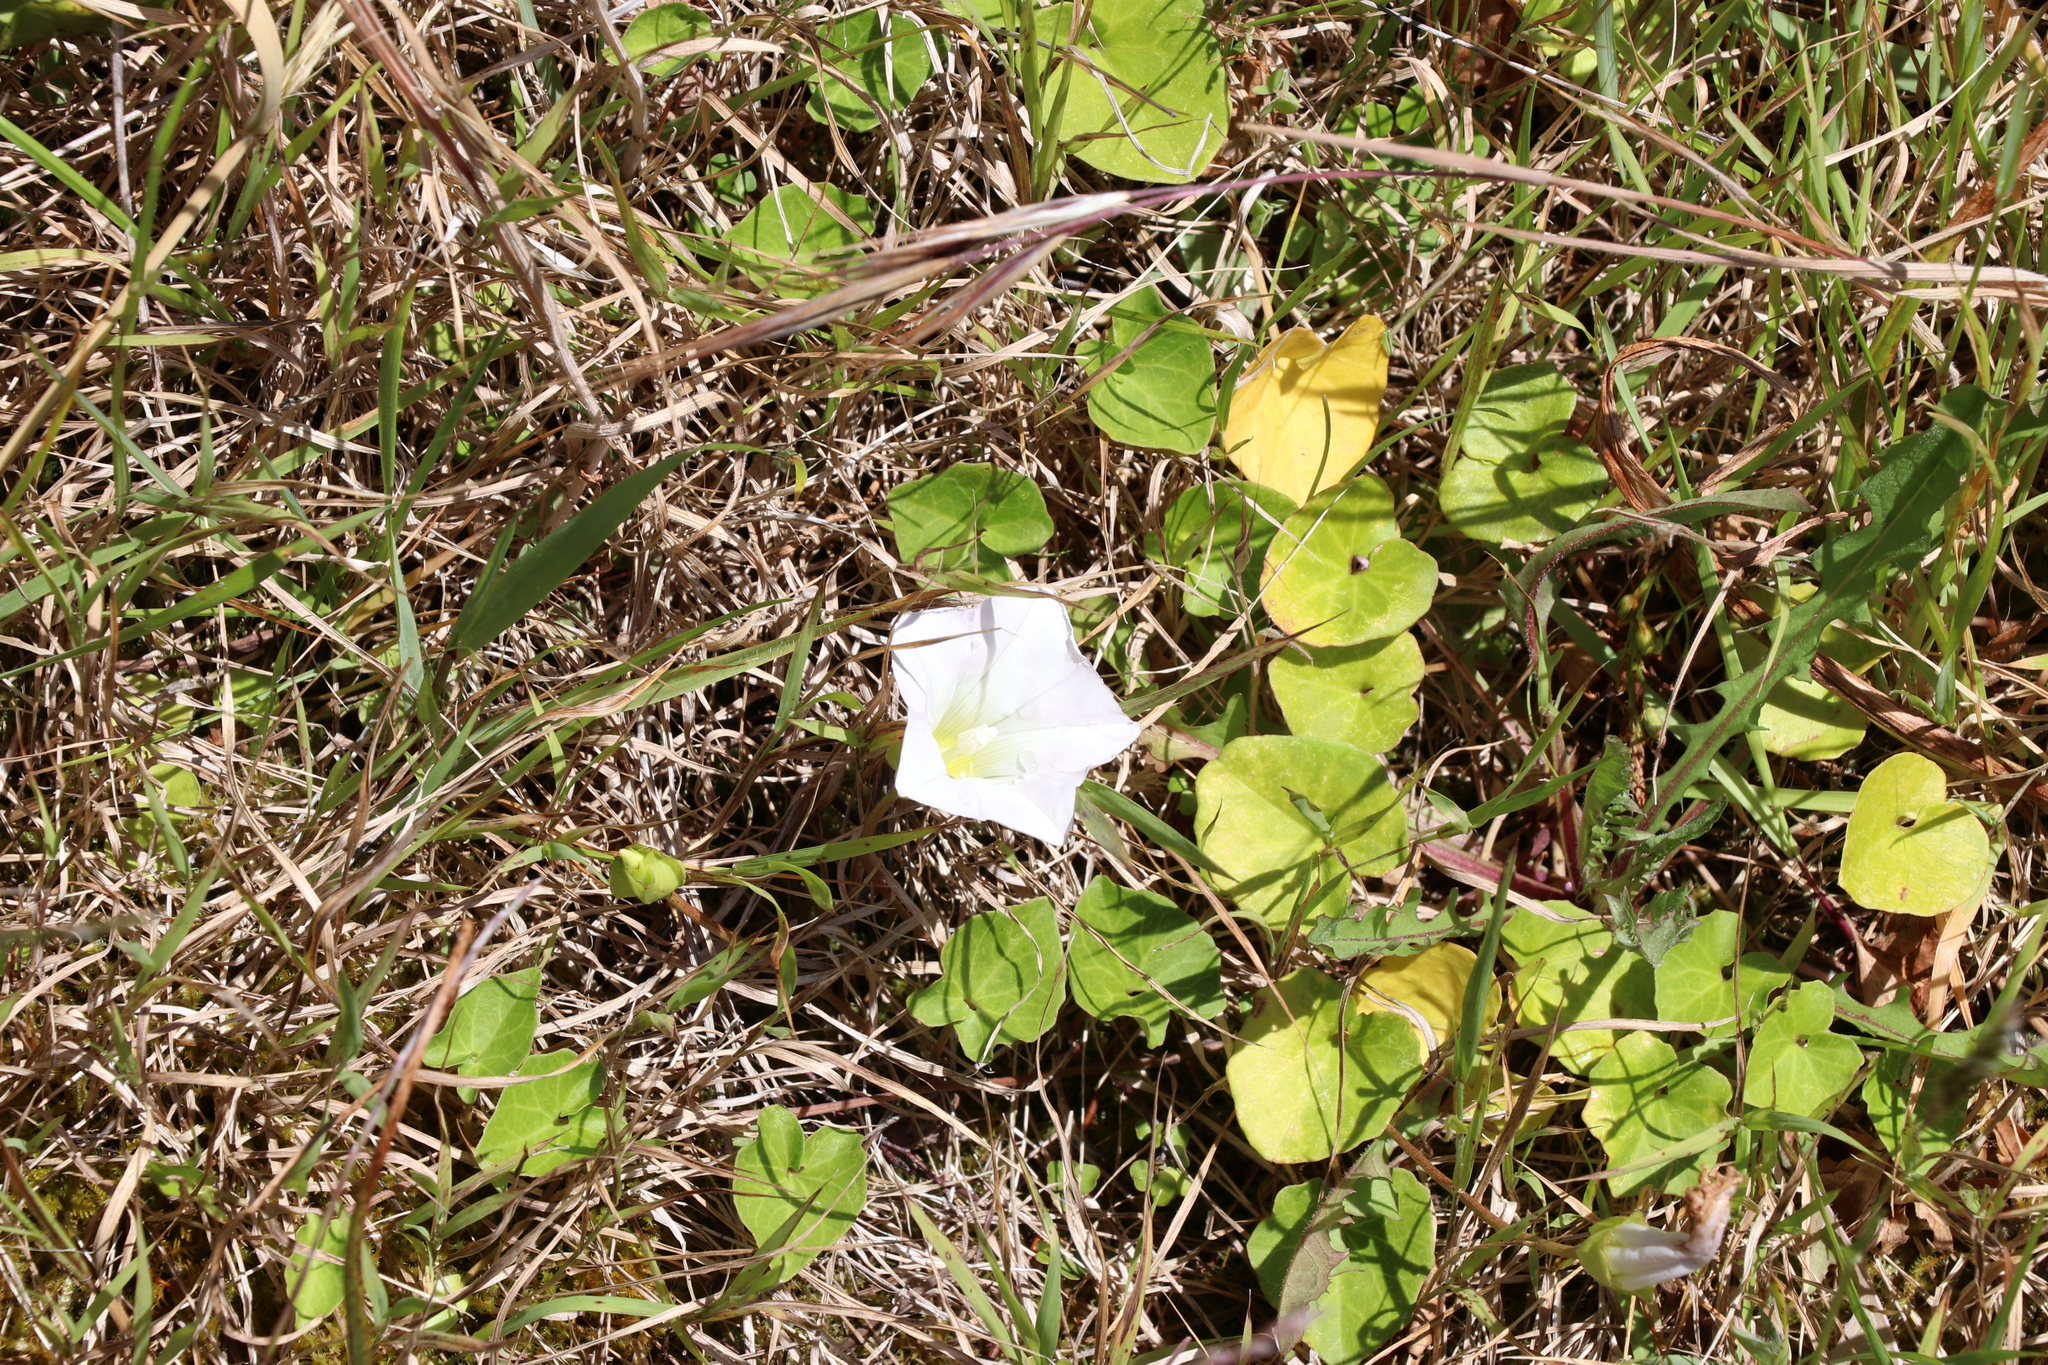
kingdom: Plantae
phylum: Tracheophyta
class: Magnoliopsida
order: Solanales
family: Convolvulaceae
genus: Calystegia
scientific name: Calystegia soldanella
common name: Sea bindweed
